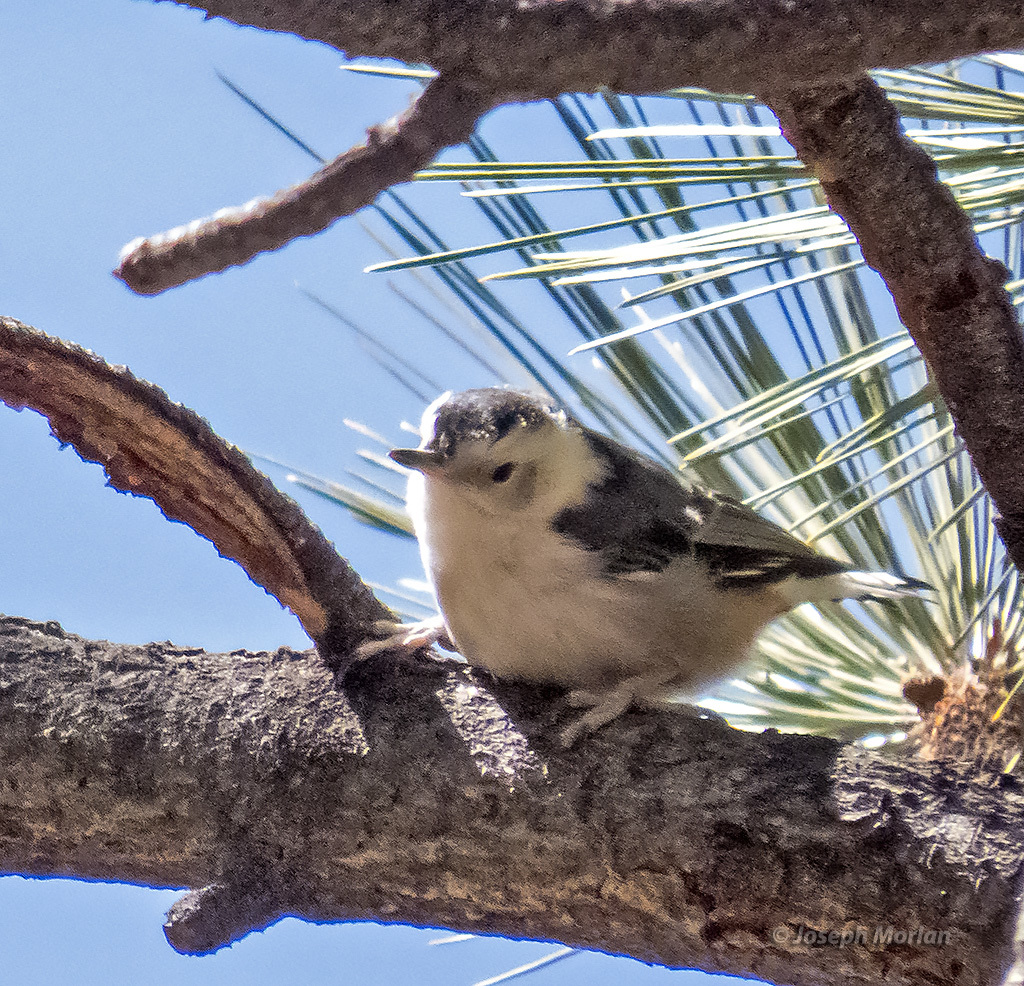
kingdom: Animalia
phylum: Chordata
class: Aves
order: Passeriformes
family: Sittidae
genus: Sitta
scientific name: Sitta carolinensis
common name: White-breasted nuthatch
